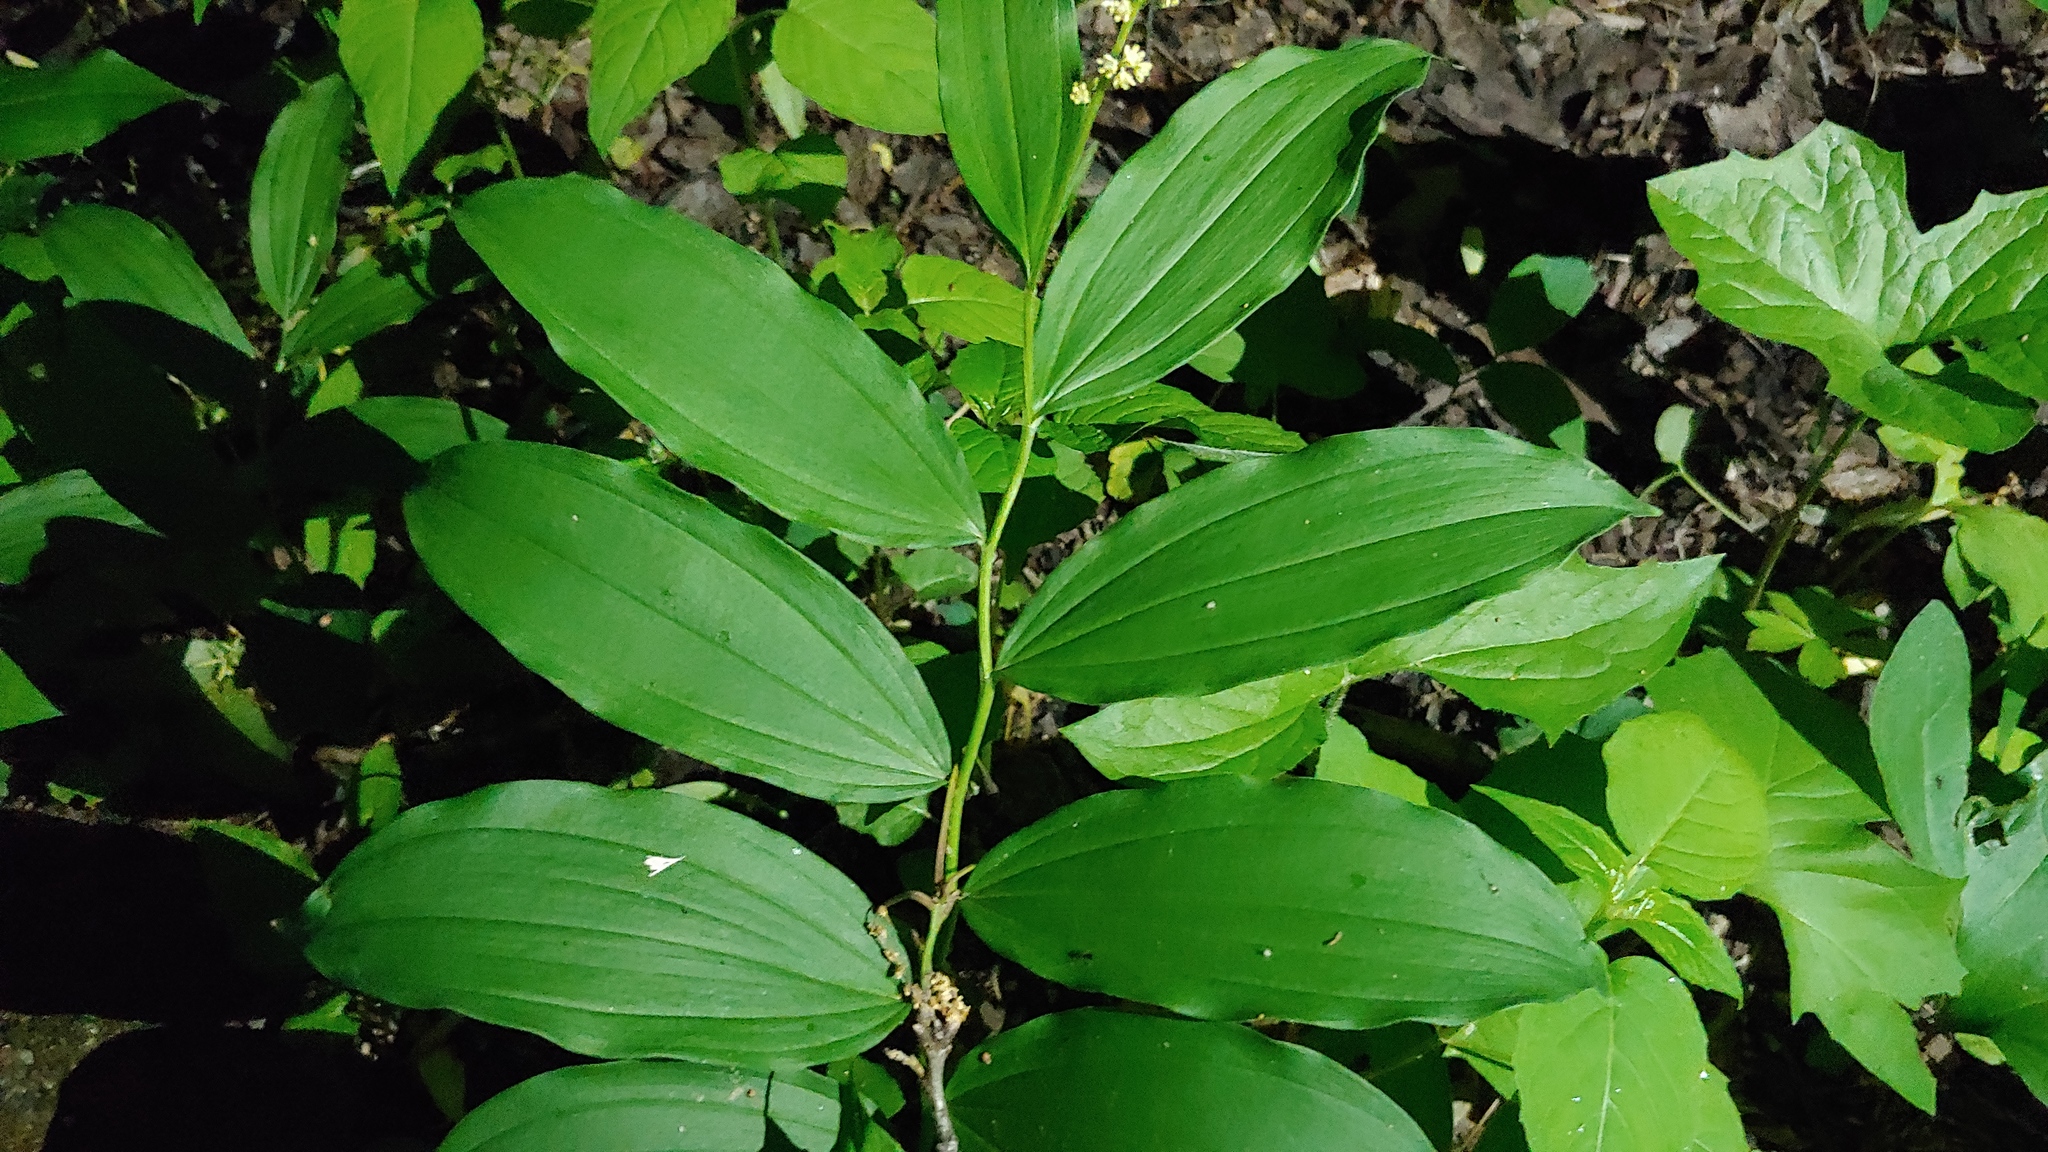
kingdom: Plantae
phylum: Tracheophyta
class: Liliopsida
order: Asparagales
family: Asparagaceae
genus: Maianthemum
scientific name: Maianthemum racemosum
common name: False spikenard
